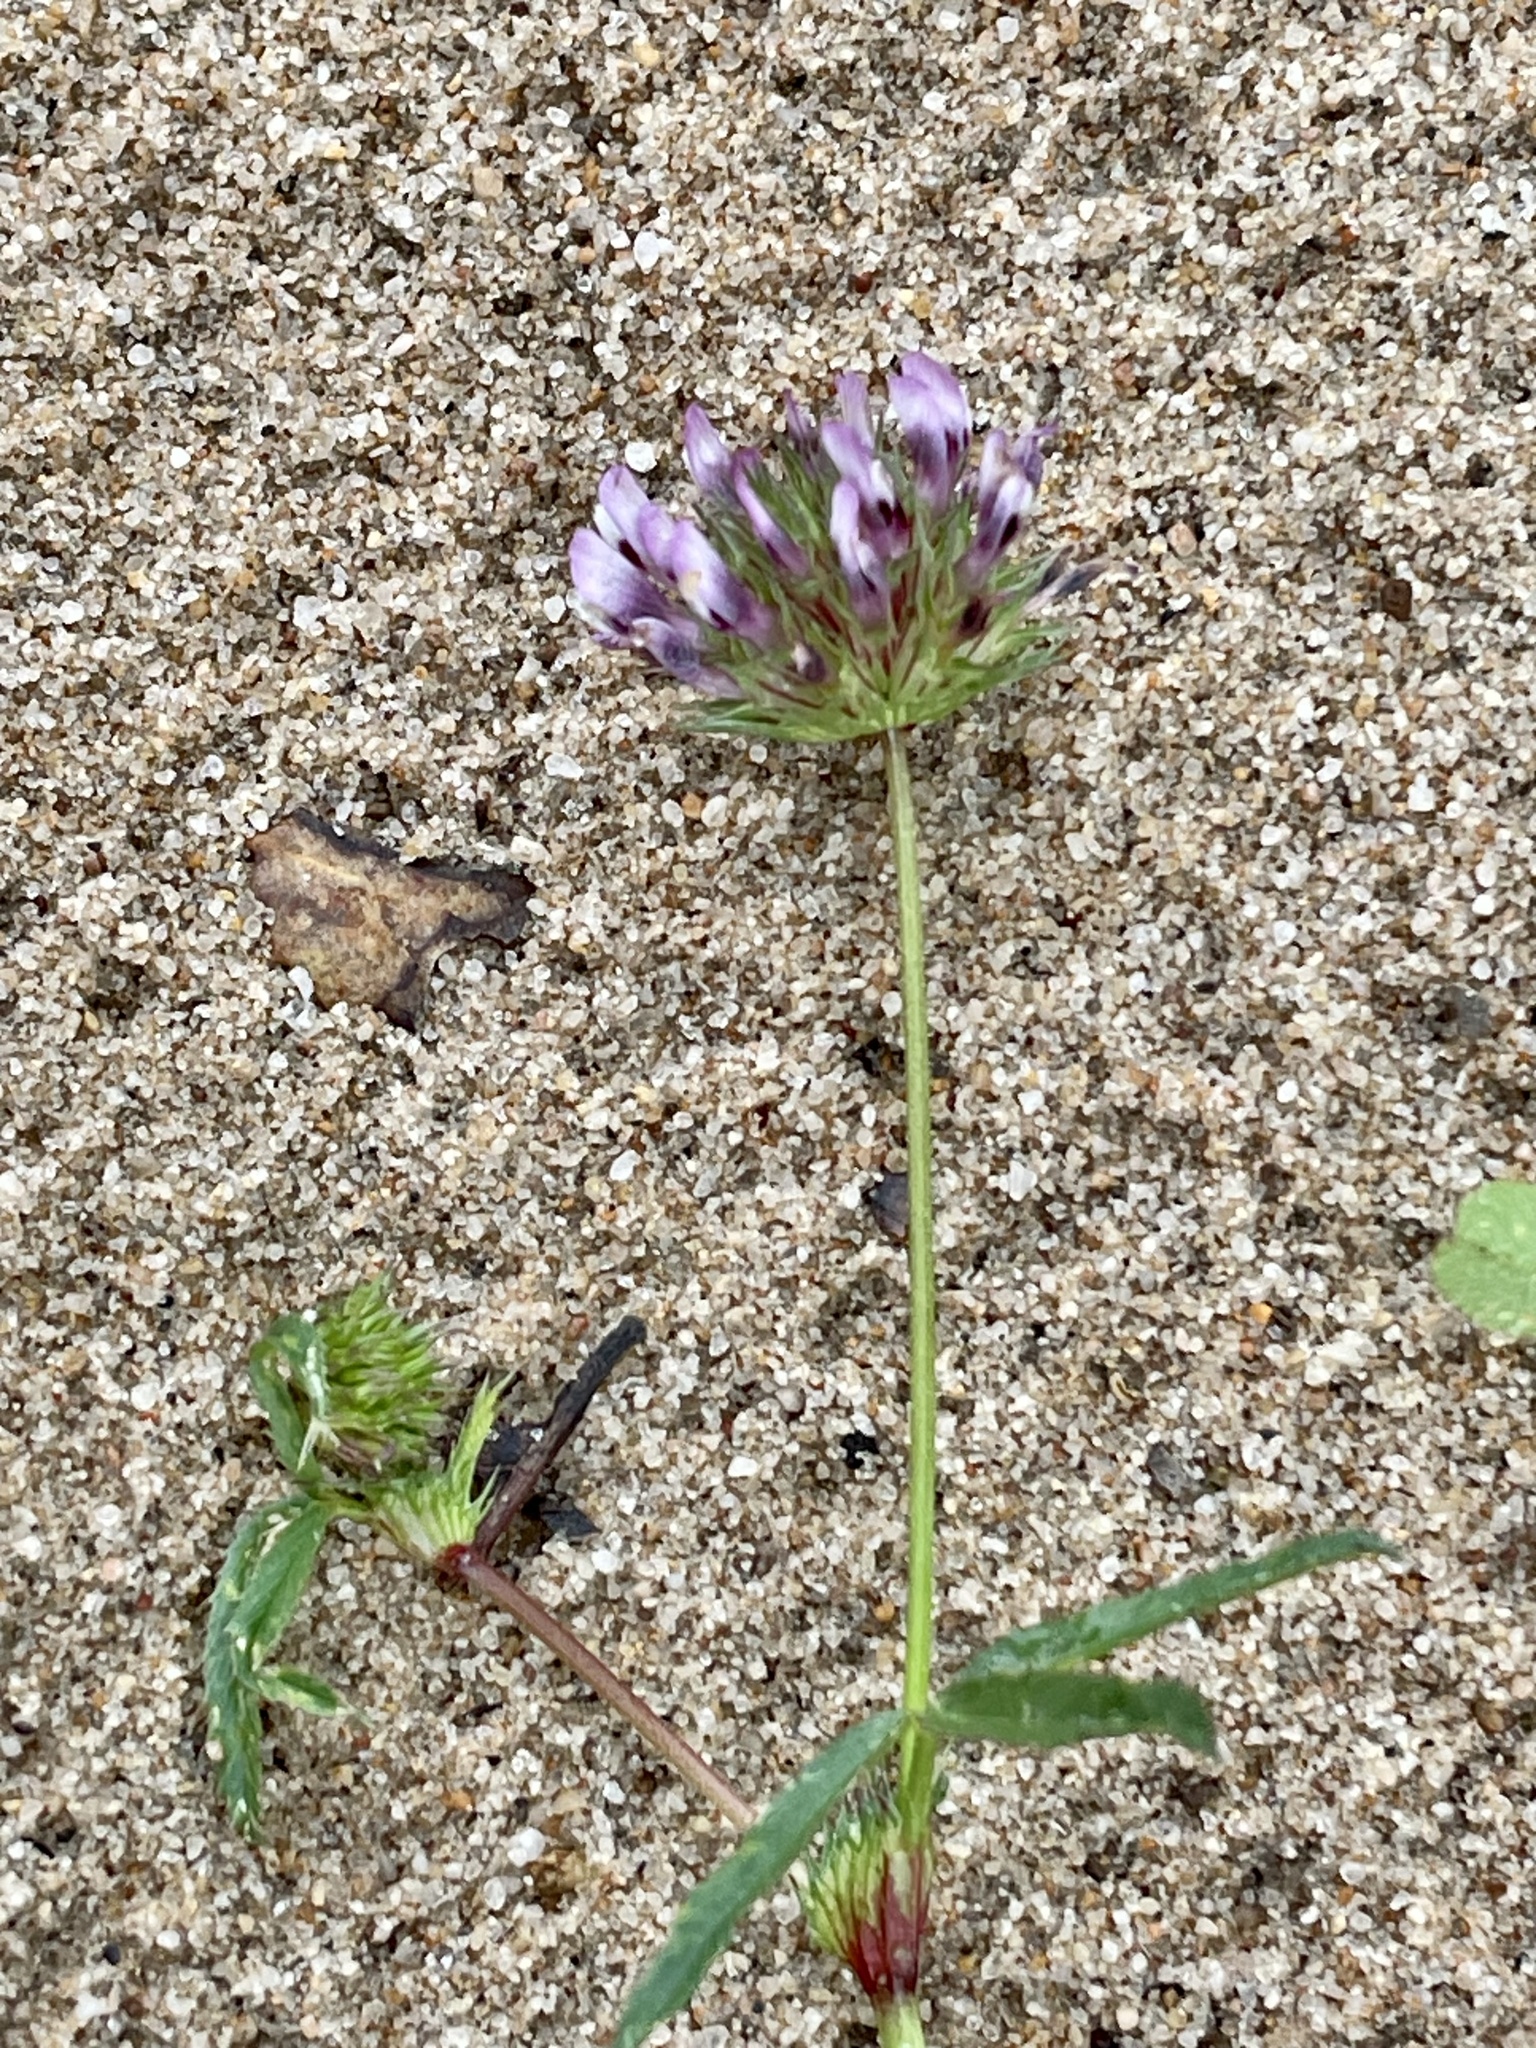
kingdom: Plantae
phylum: Tracheophyta
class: Magnoliopsida
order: Fabales
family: Fabaceae
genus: Trifolium
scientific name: Trifolium willdenovii
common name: Tomcat clover
